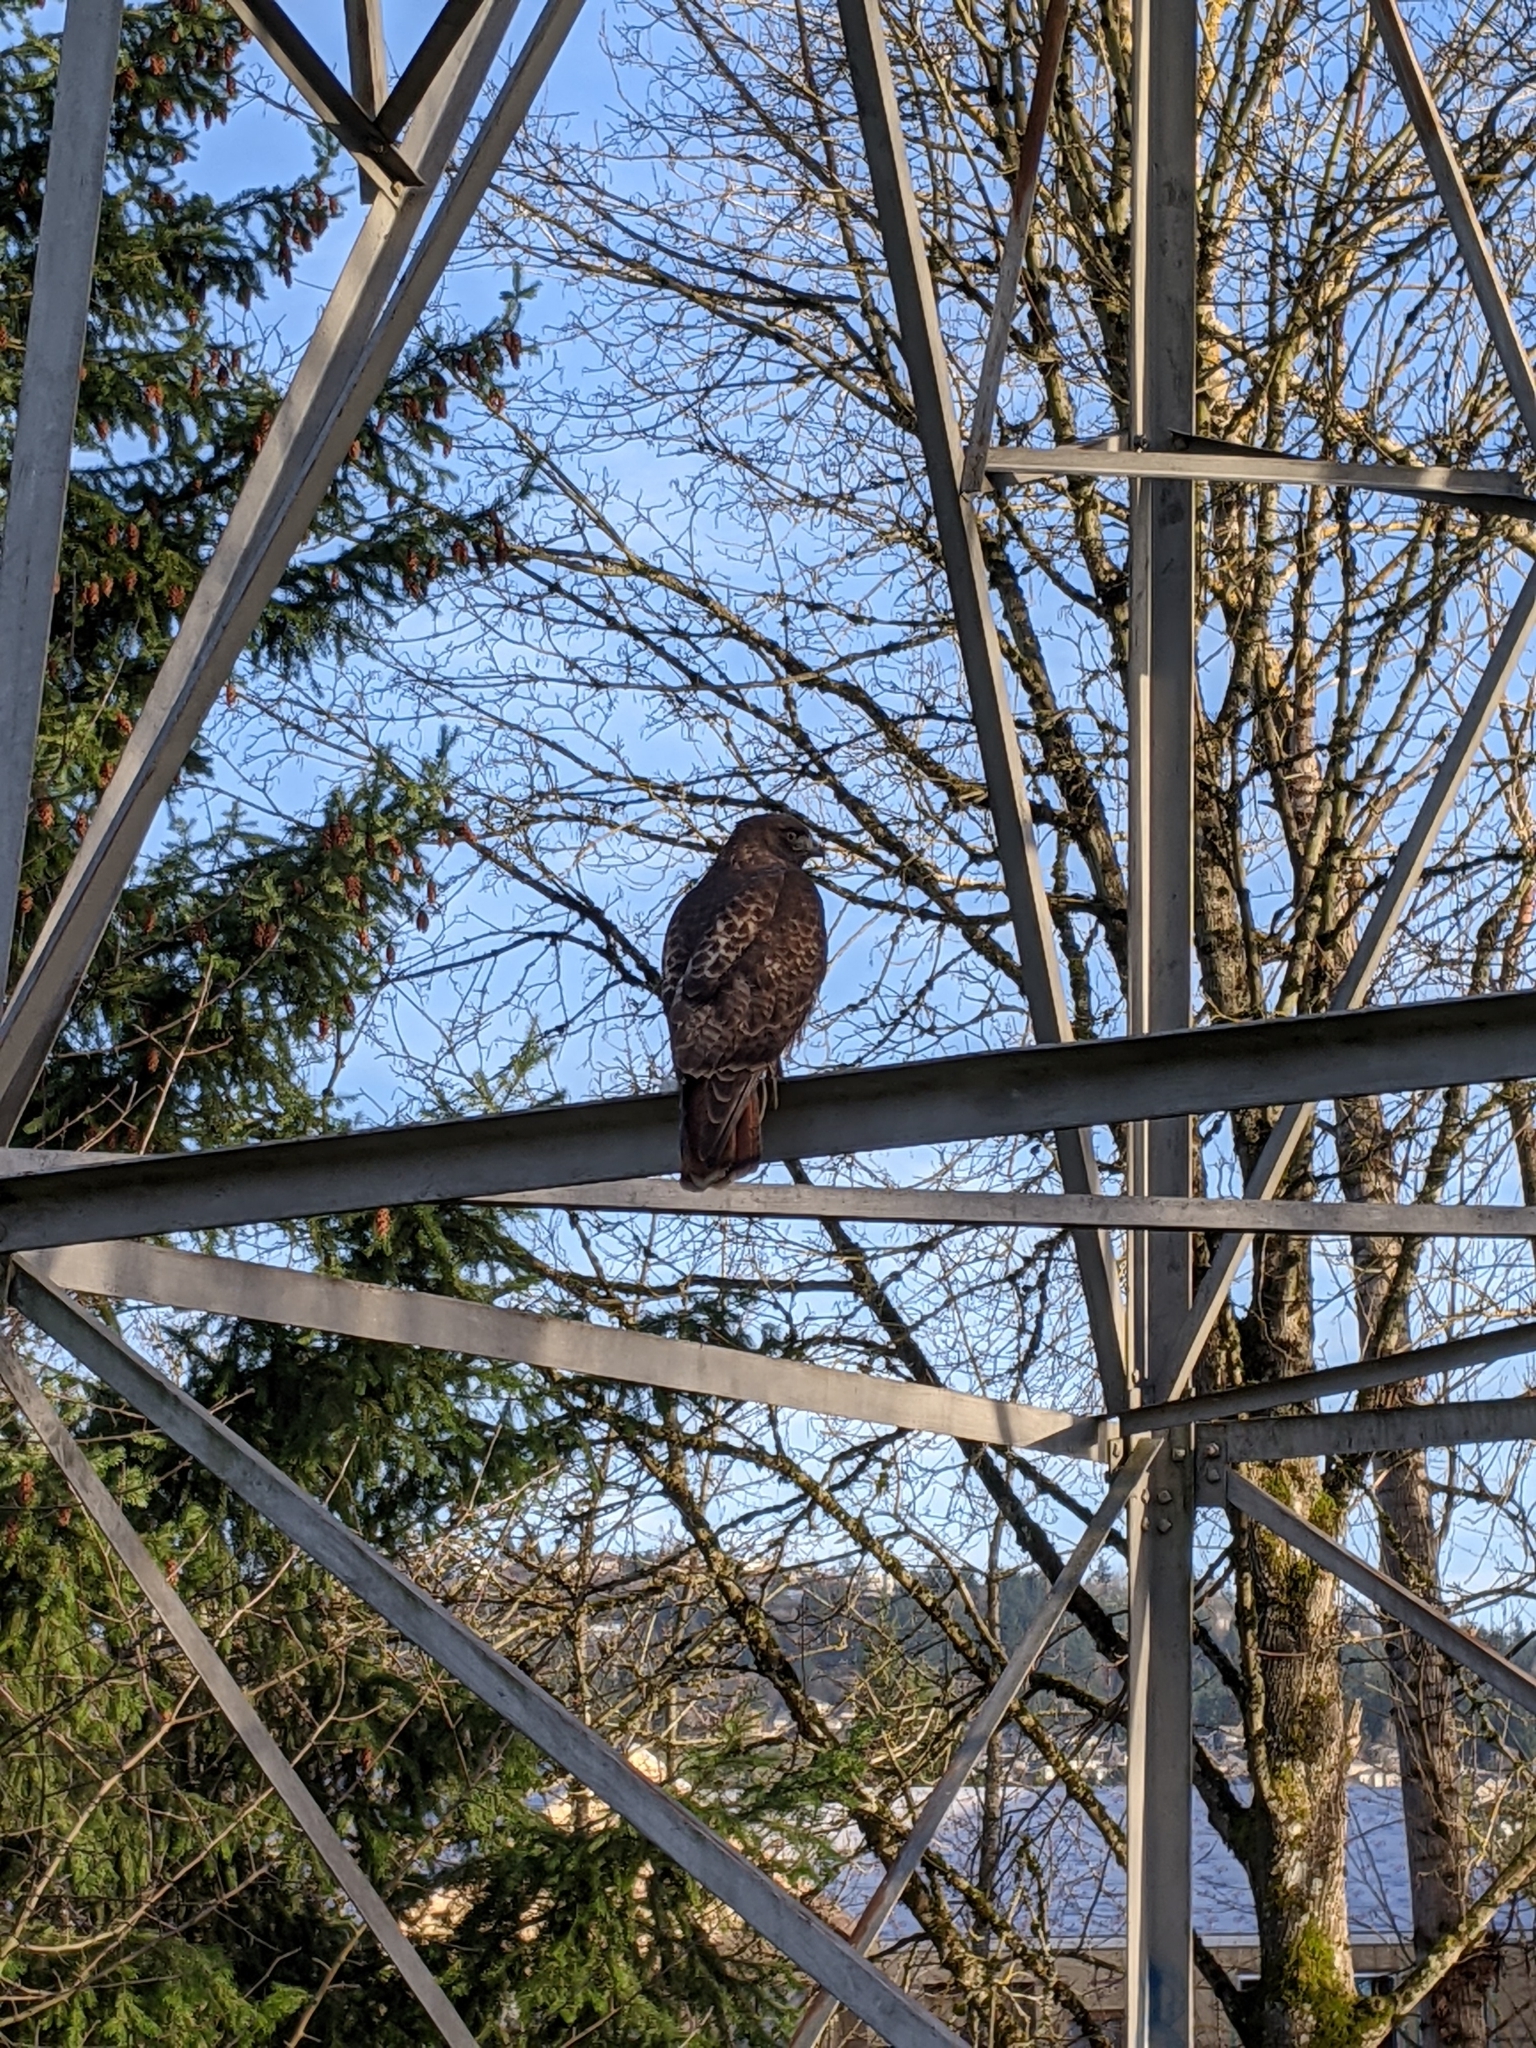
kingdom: Animalia
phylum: Chordata
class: Aves
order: Accipitriformes
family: Accipitridae
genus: Buteo
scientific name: Buteo jamaicensis
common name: Red-tailed hawk
